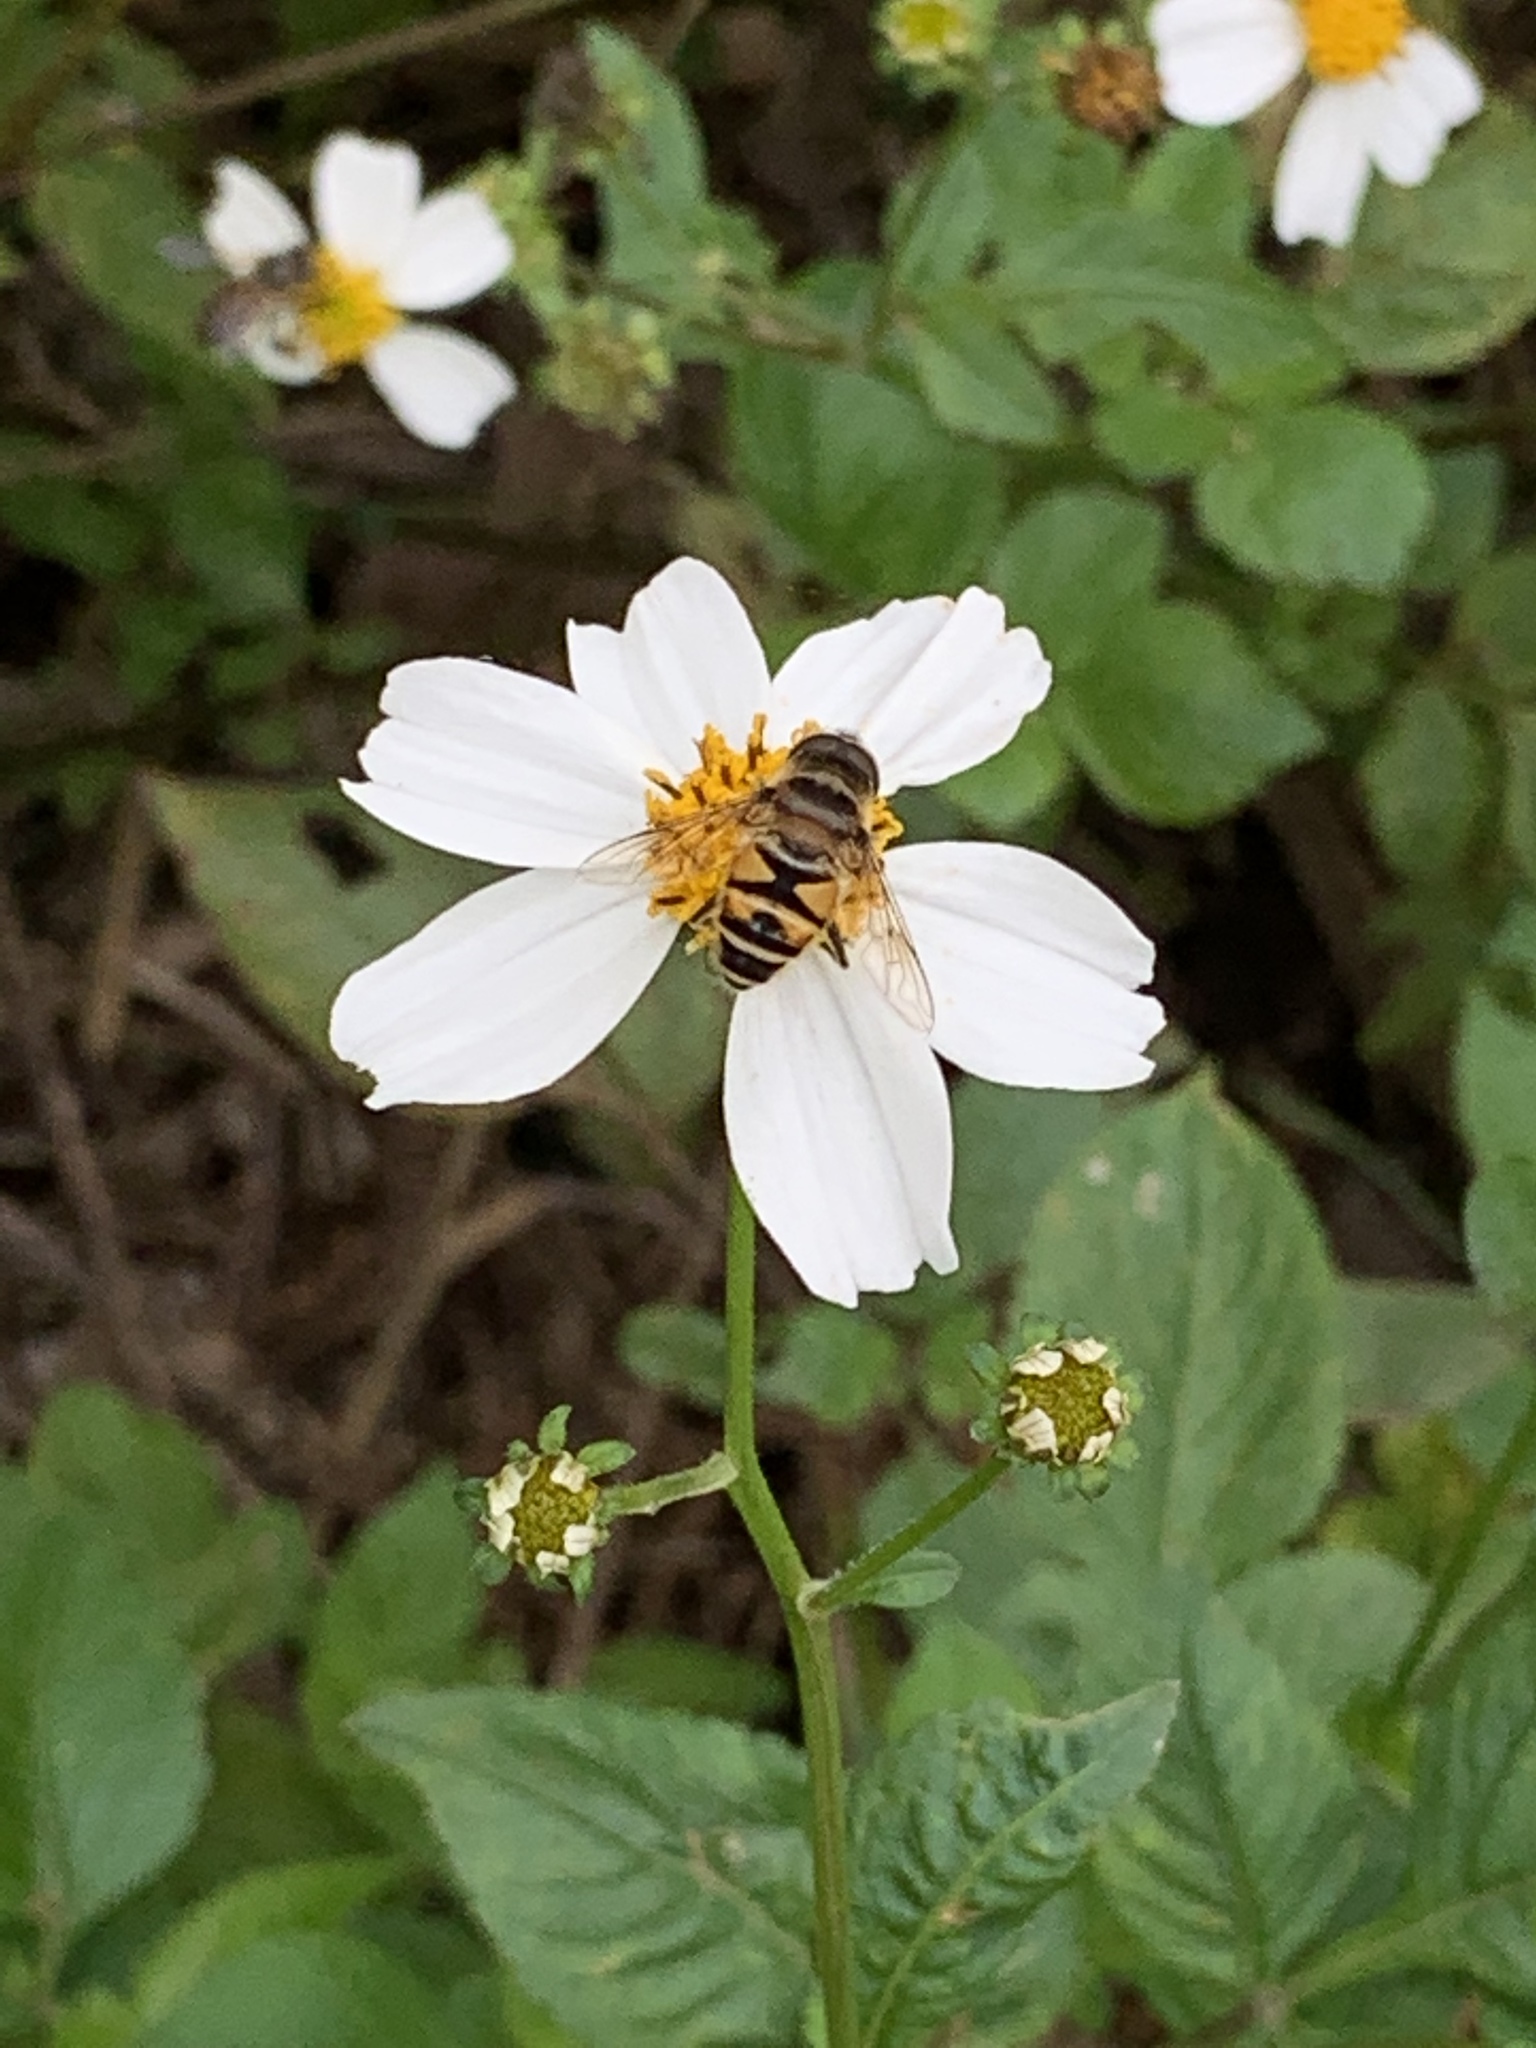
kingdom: Animalia
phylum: Arthropoda
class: Insecta
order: Diptera
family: Syrphidae
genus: Eristalis
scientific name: Eristalis cerealis
